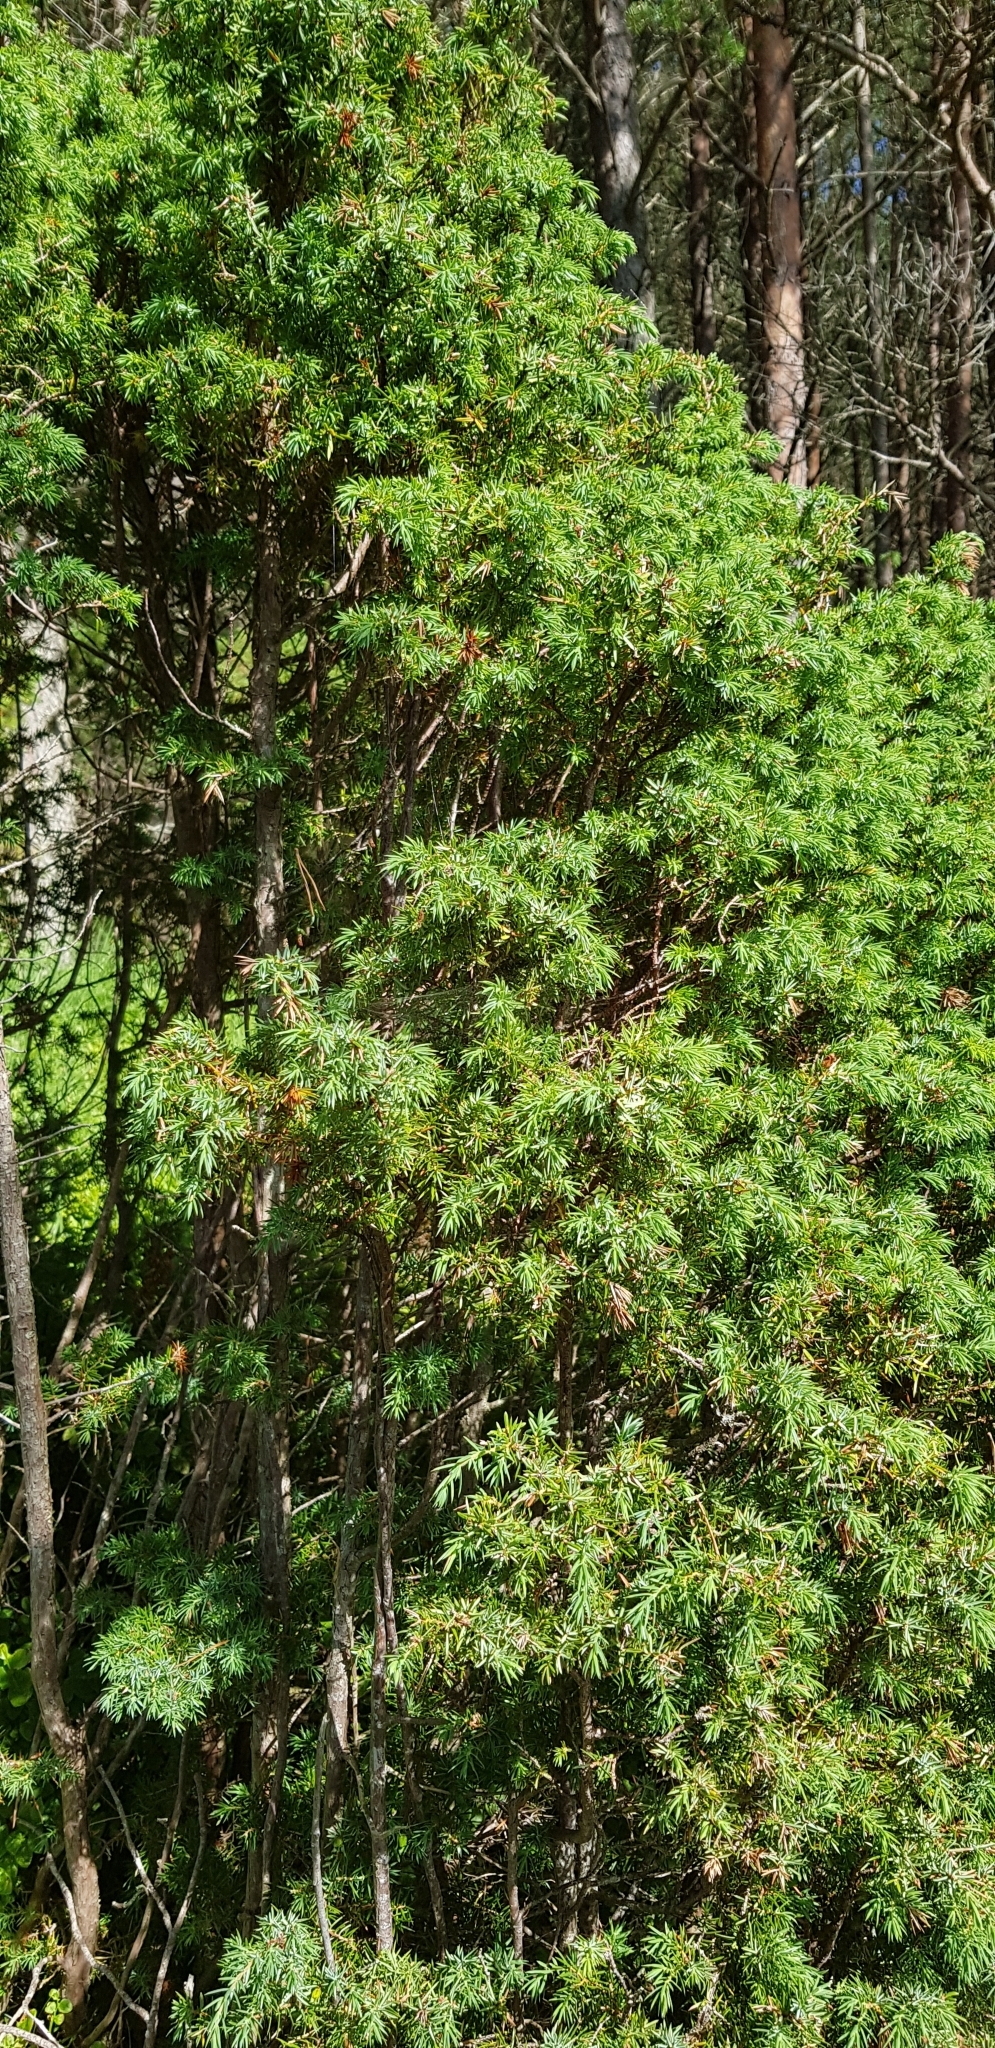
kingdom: Plantae
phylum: Tracheophyta
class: Pinopsida
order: Pinales
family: Cupressaceae
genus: Juniperus
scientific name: Juniperus communis
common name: Common juniper
